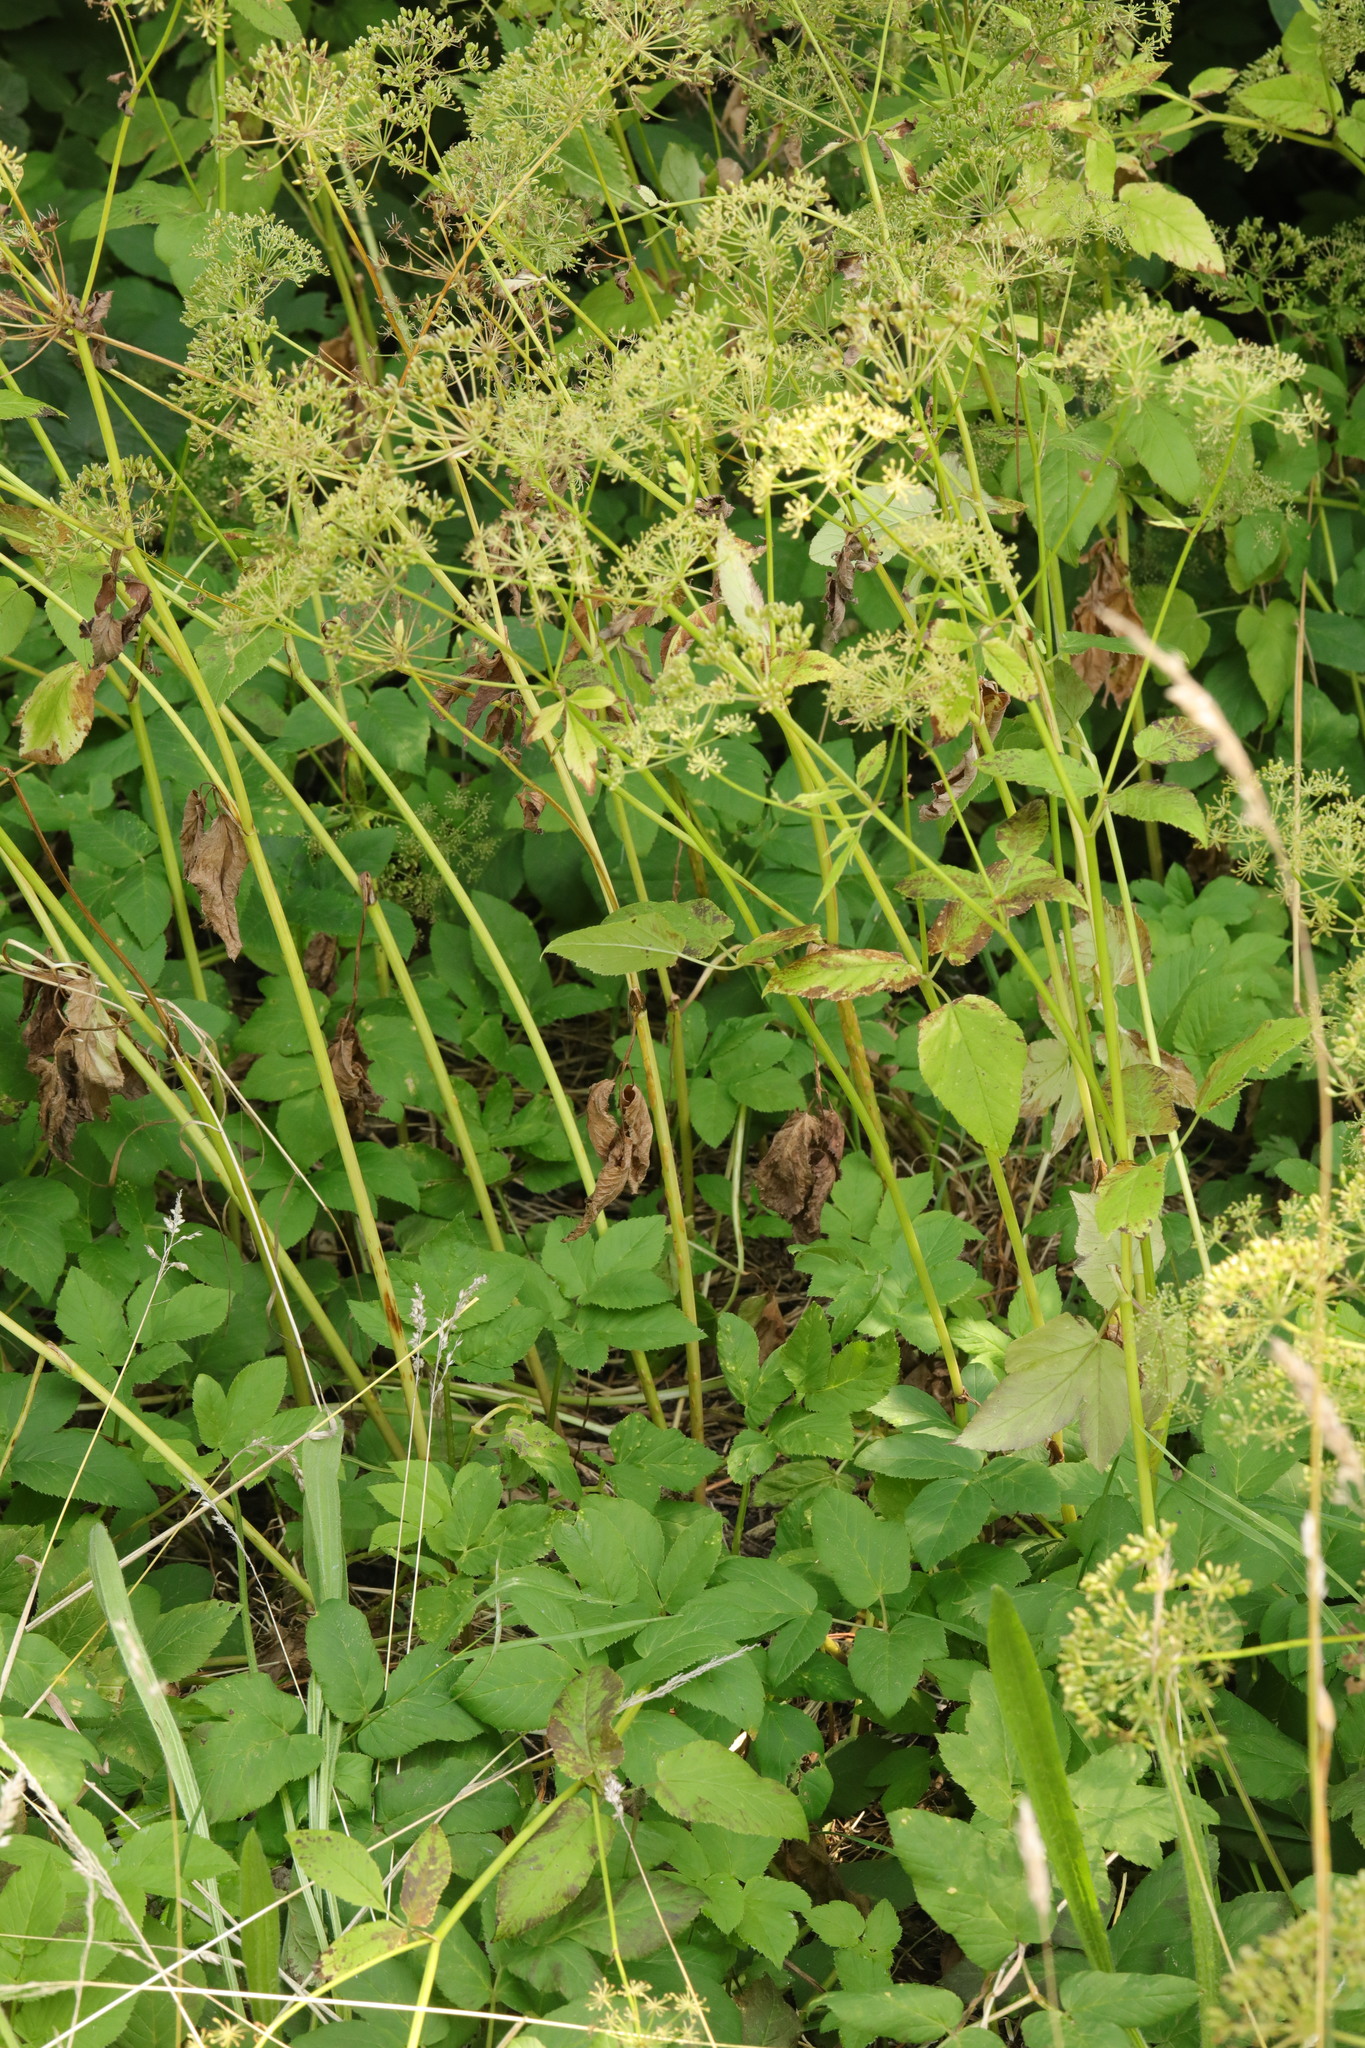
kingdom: Plantae
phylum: Tracheophyta
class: Magnoliopsida
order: Apiales
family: Apiaceae
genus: Aegopodium
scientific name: Aegopodium podagraria
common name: Ground-elder
